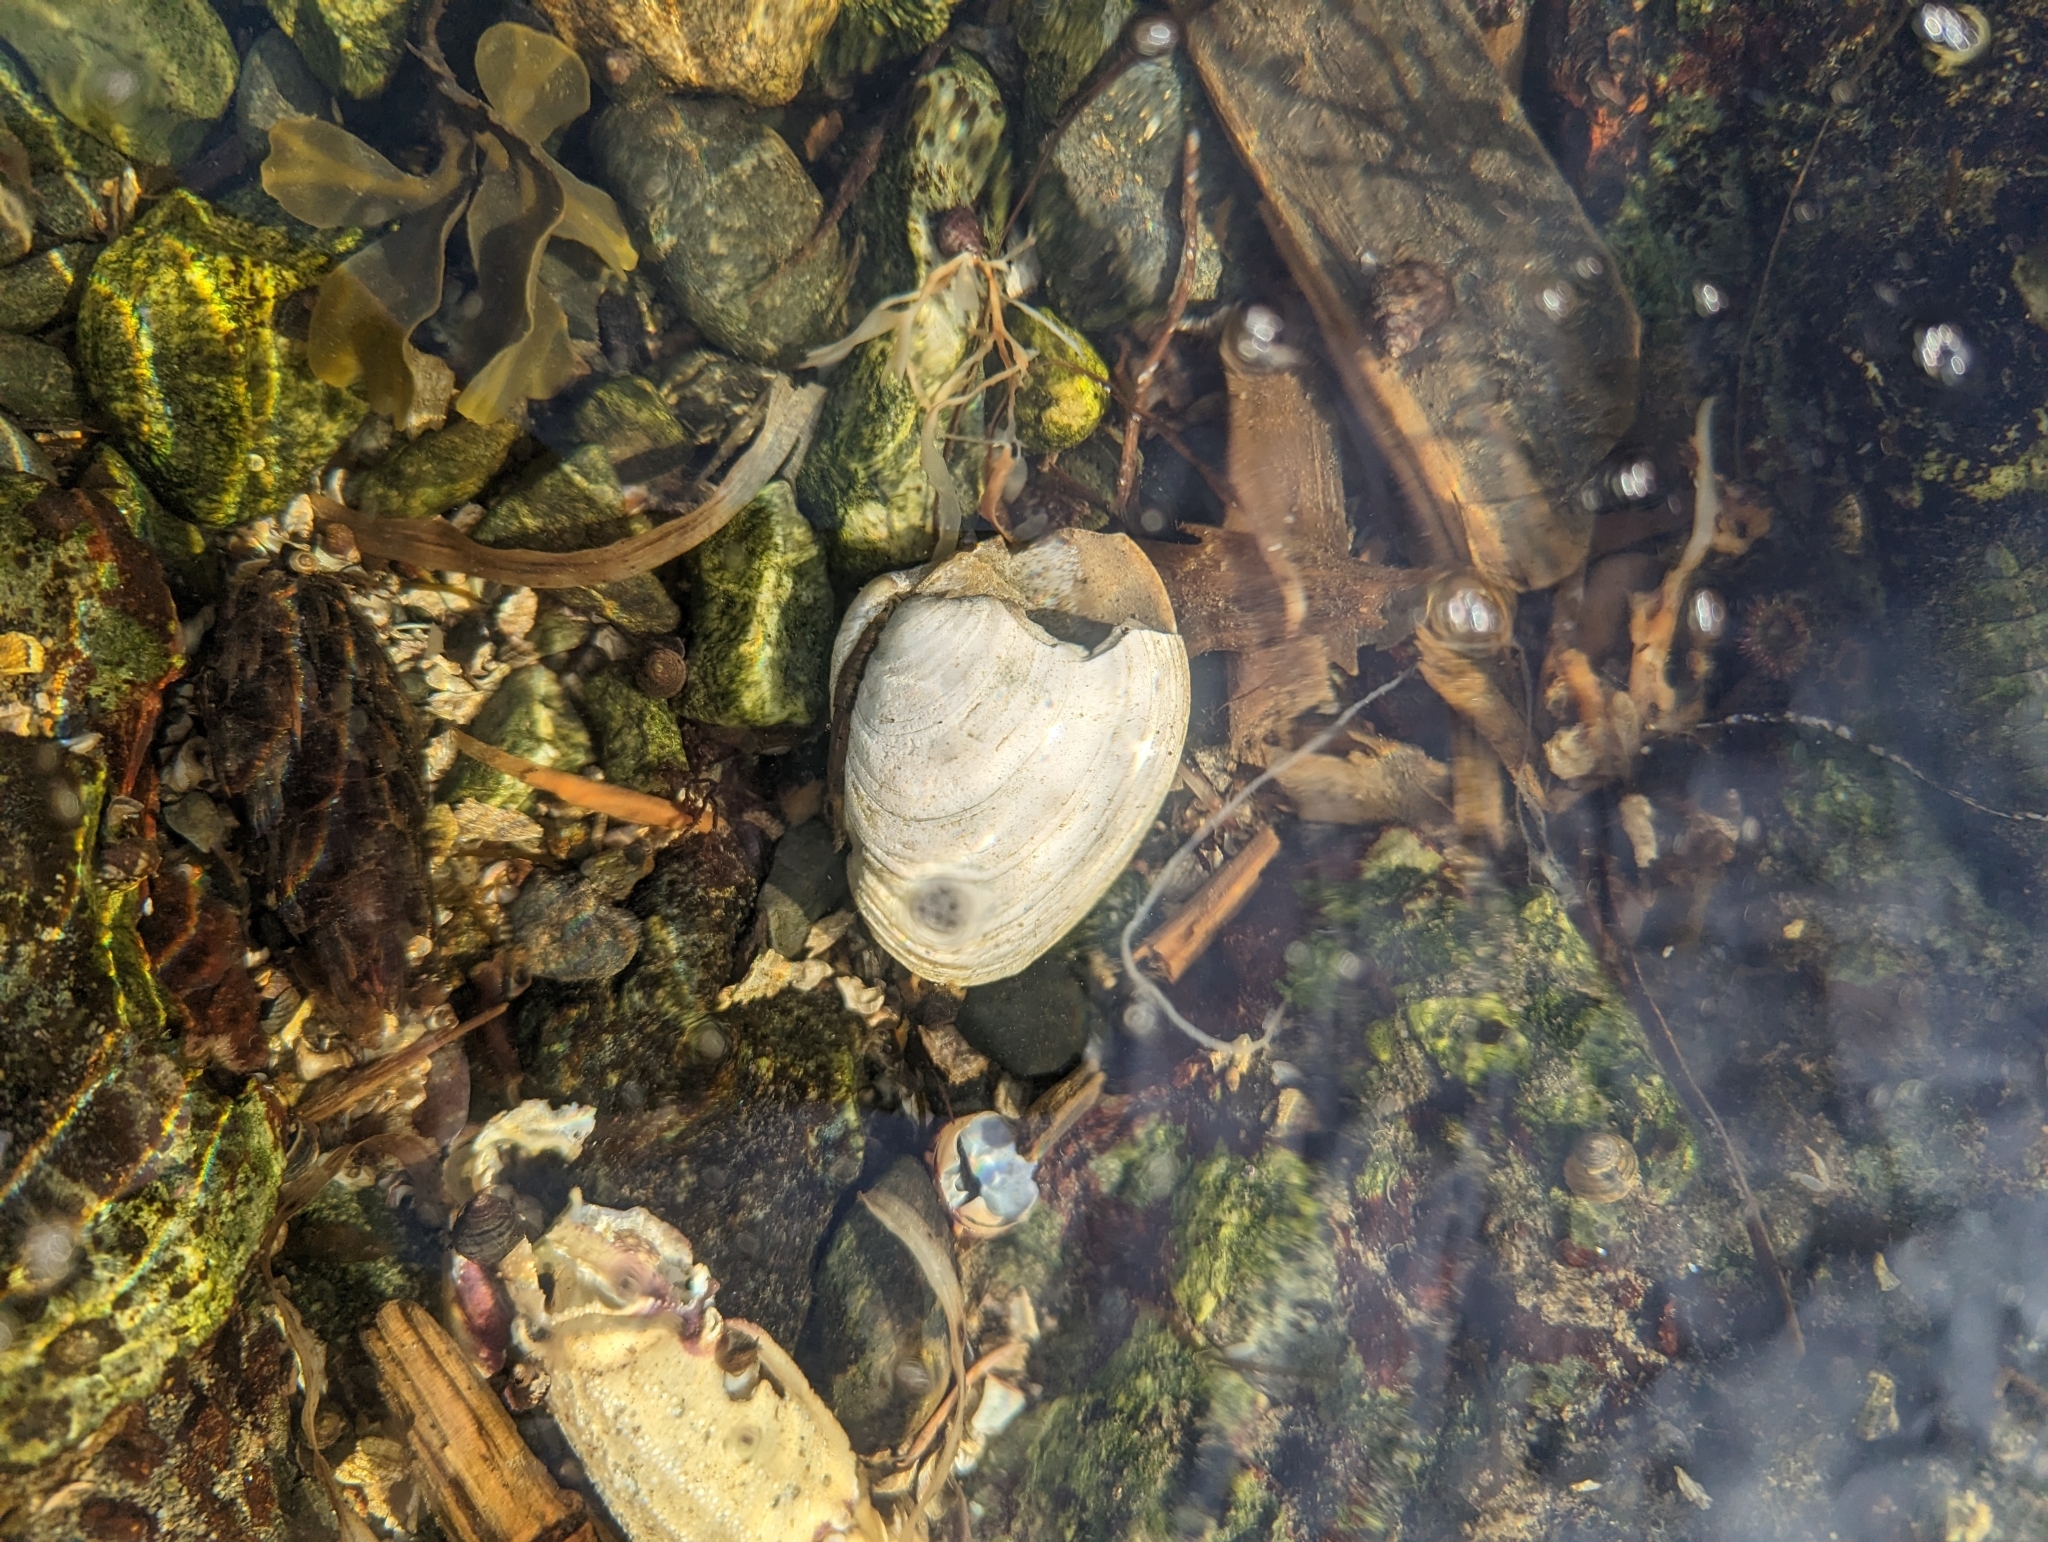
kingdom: Animalia
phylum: Mollusca
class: Bivalvia
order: Venerida
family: Veneridae
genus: Saxidomus
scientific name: Saxidomus gigantea
